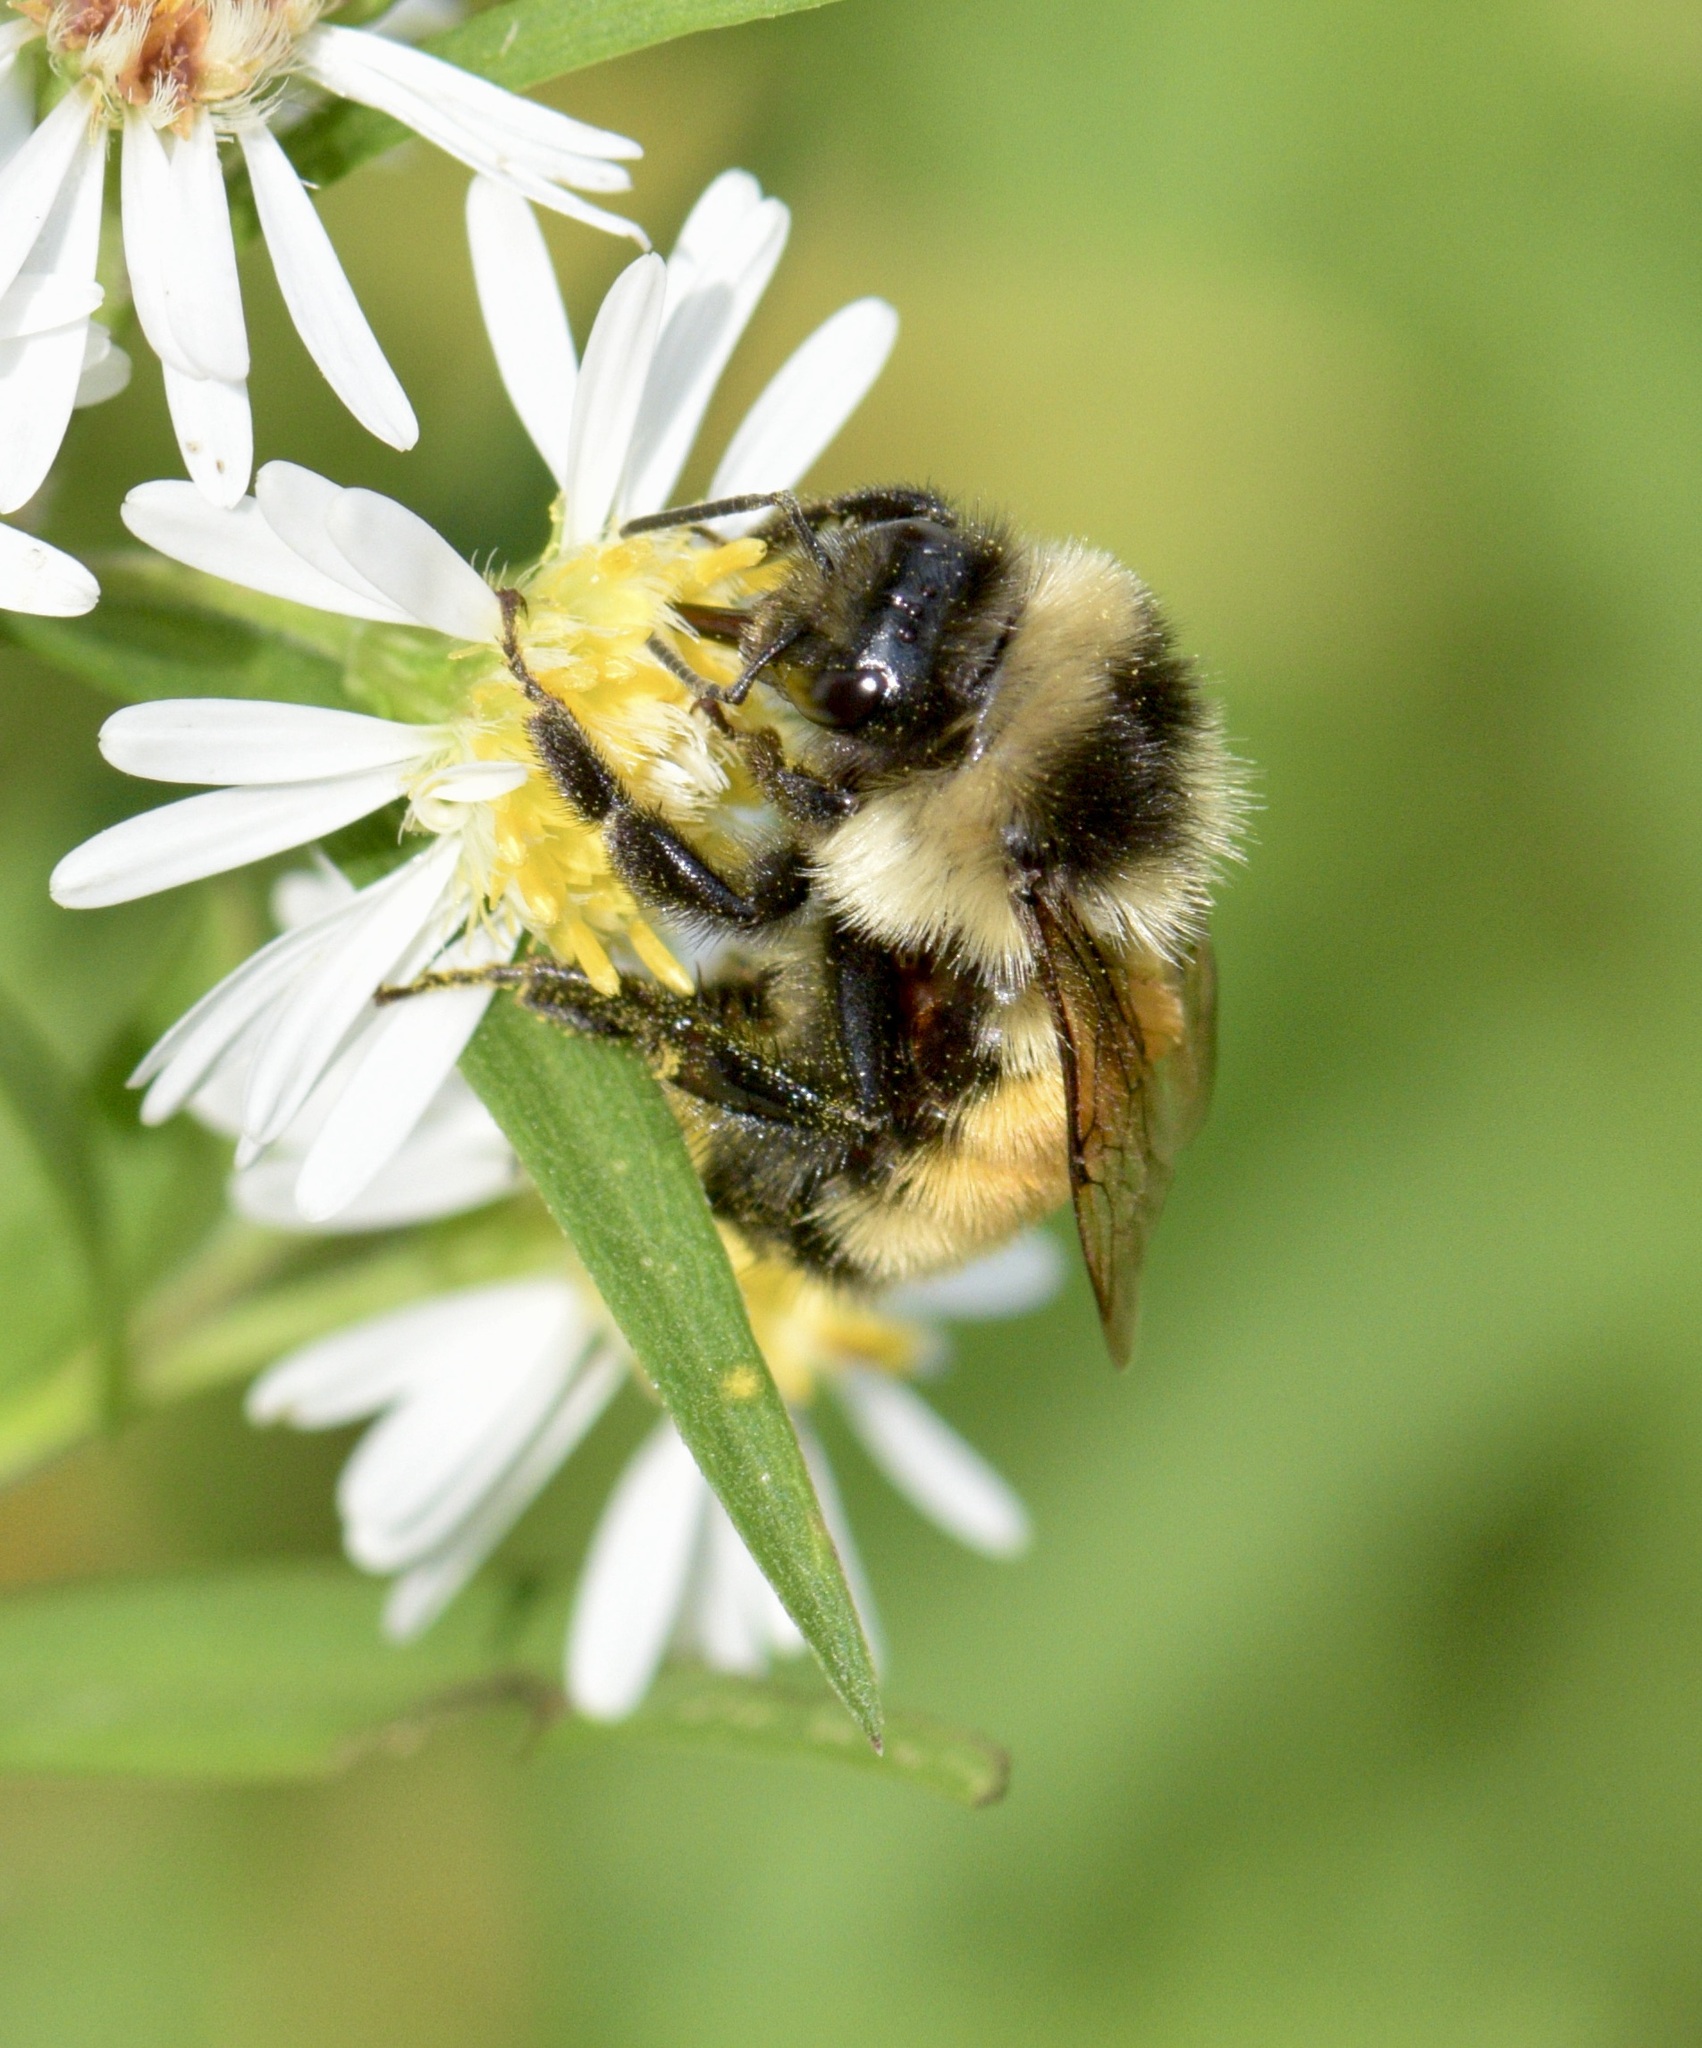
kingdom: Animalia
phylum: Arthropoda
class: Insecta
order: Hymenoptera
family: Apidae
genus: Bombus
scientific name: Bombus ternarius
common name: Tri-colored bumble bee
